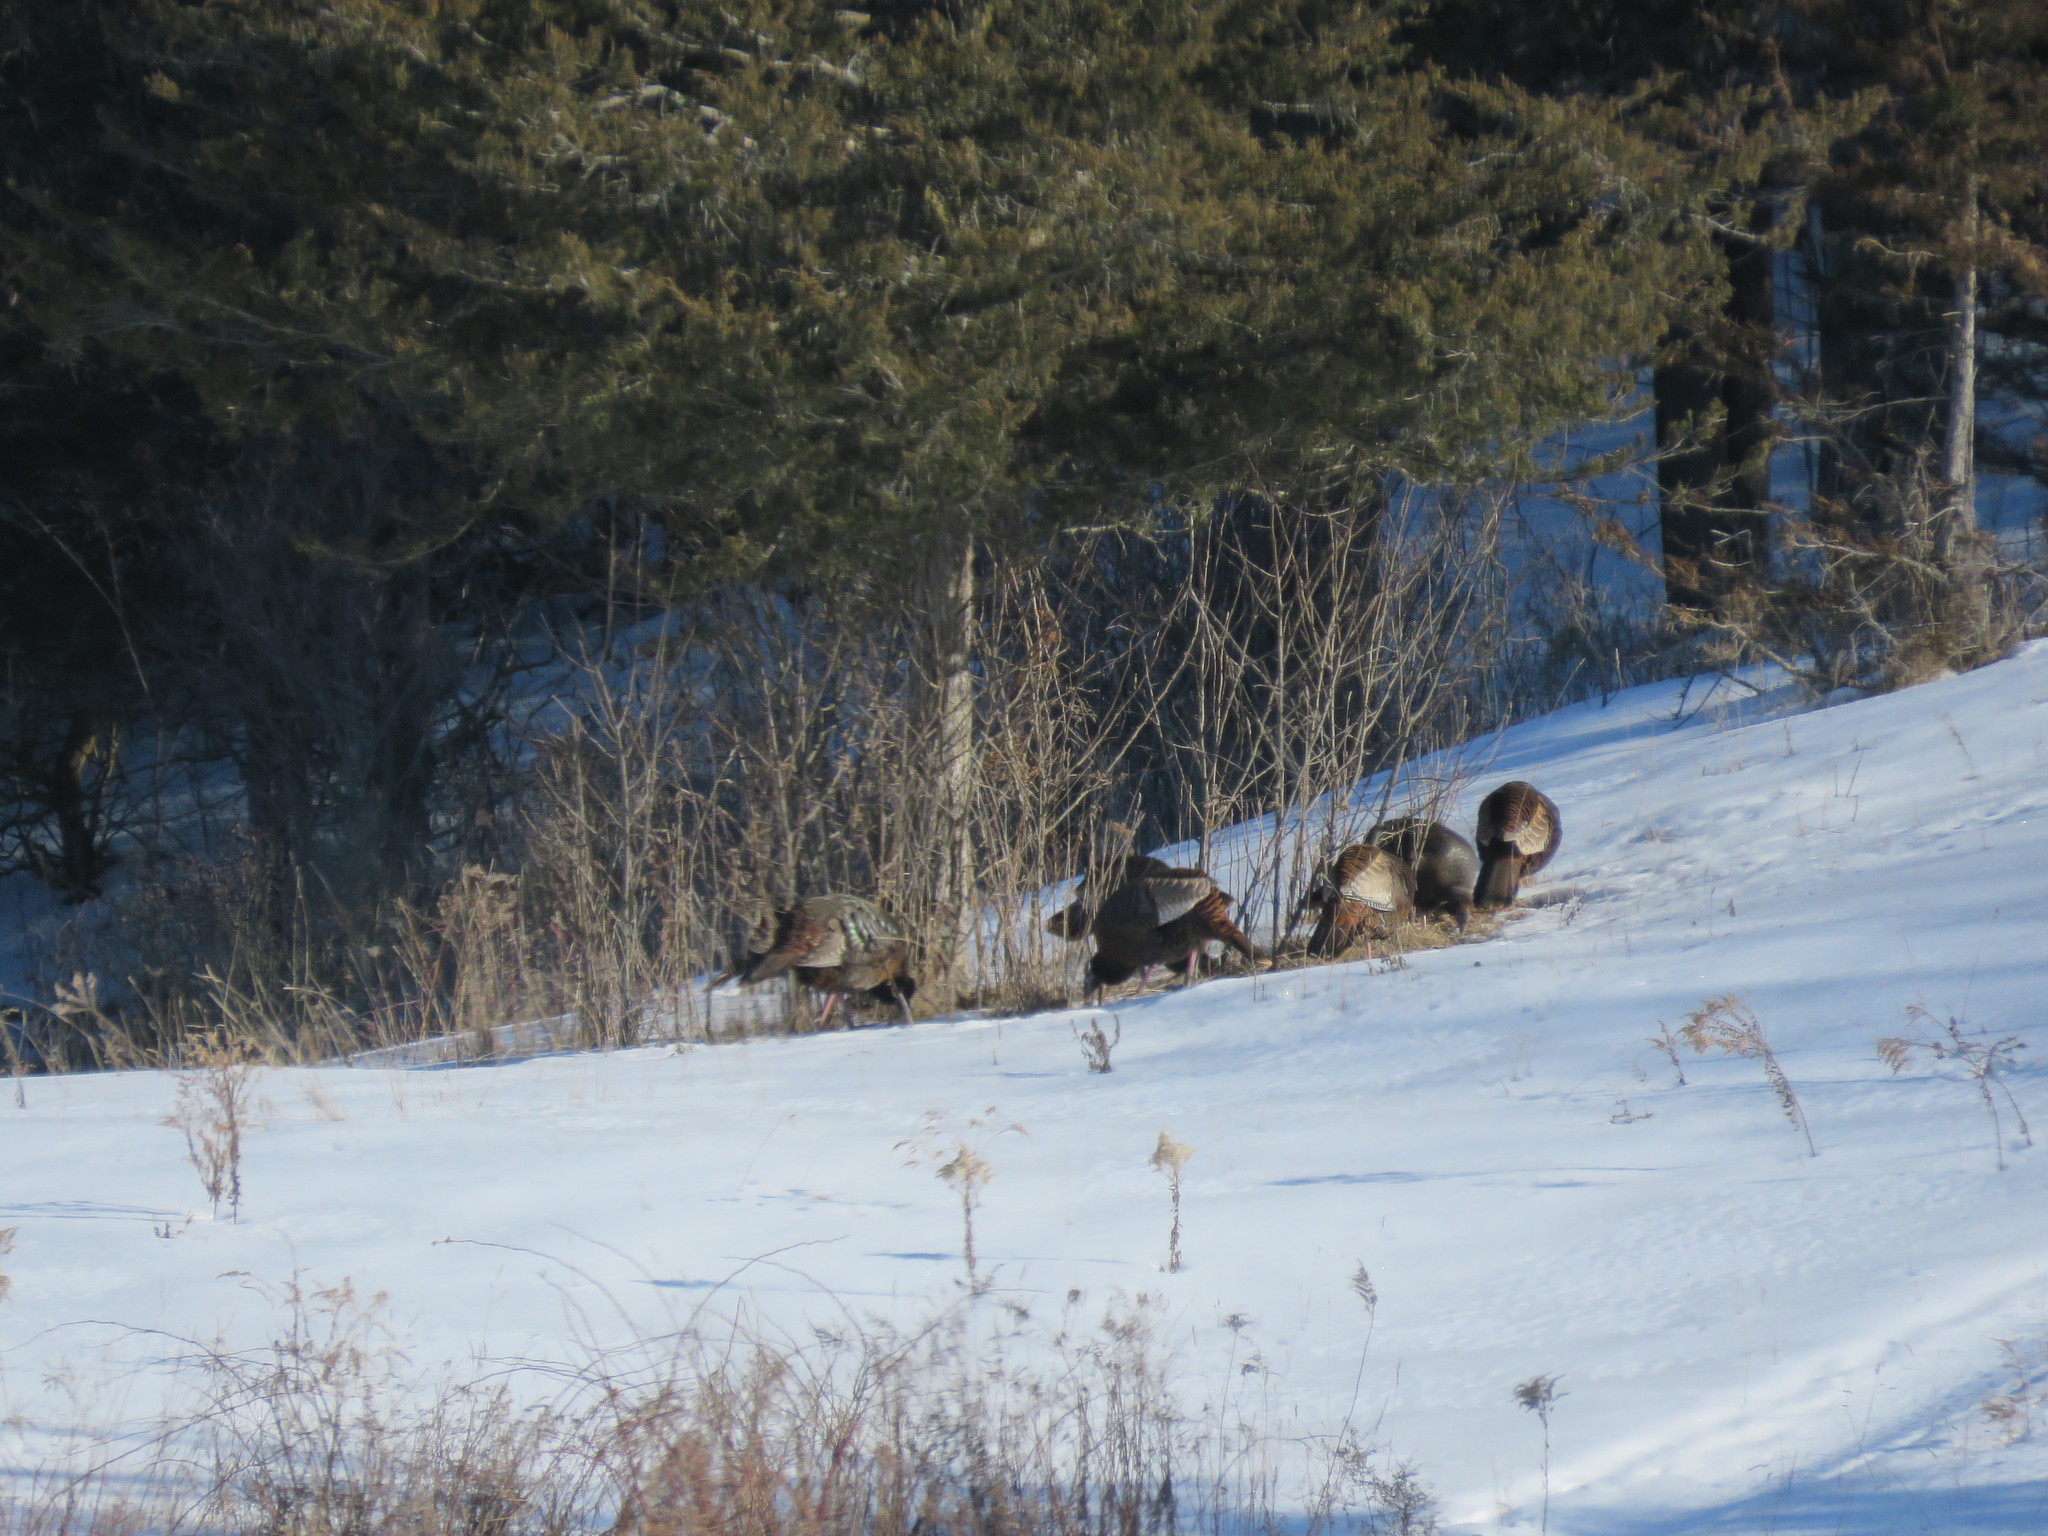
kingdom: Animalia
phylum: Chordata
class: Aves
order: Galliformes
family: Phasianidae
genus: Meleagris
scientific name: Meleagris gallopavo
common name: Wild turkey
